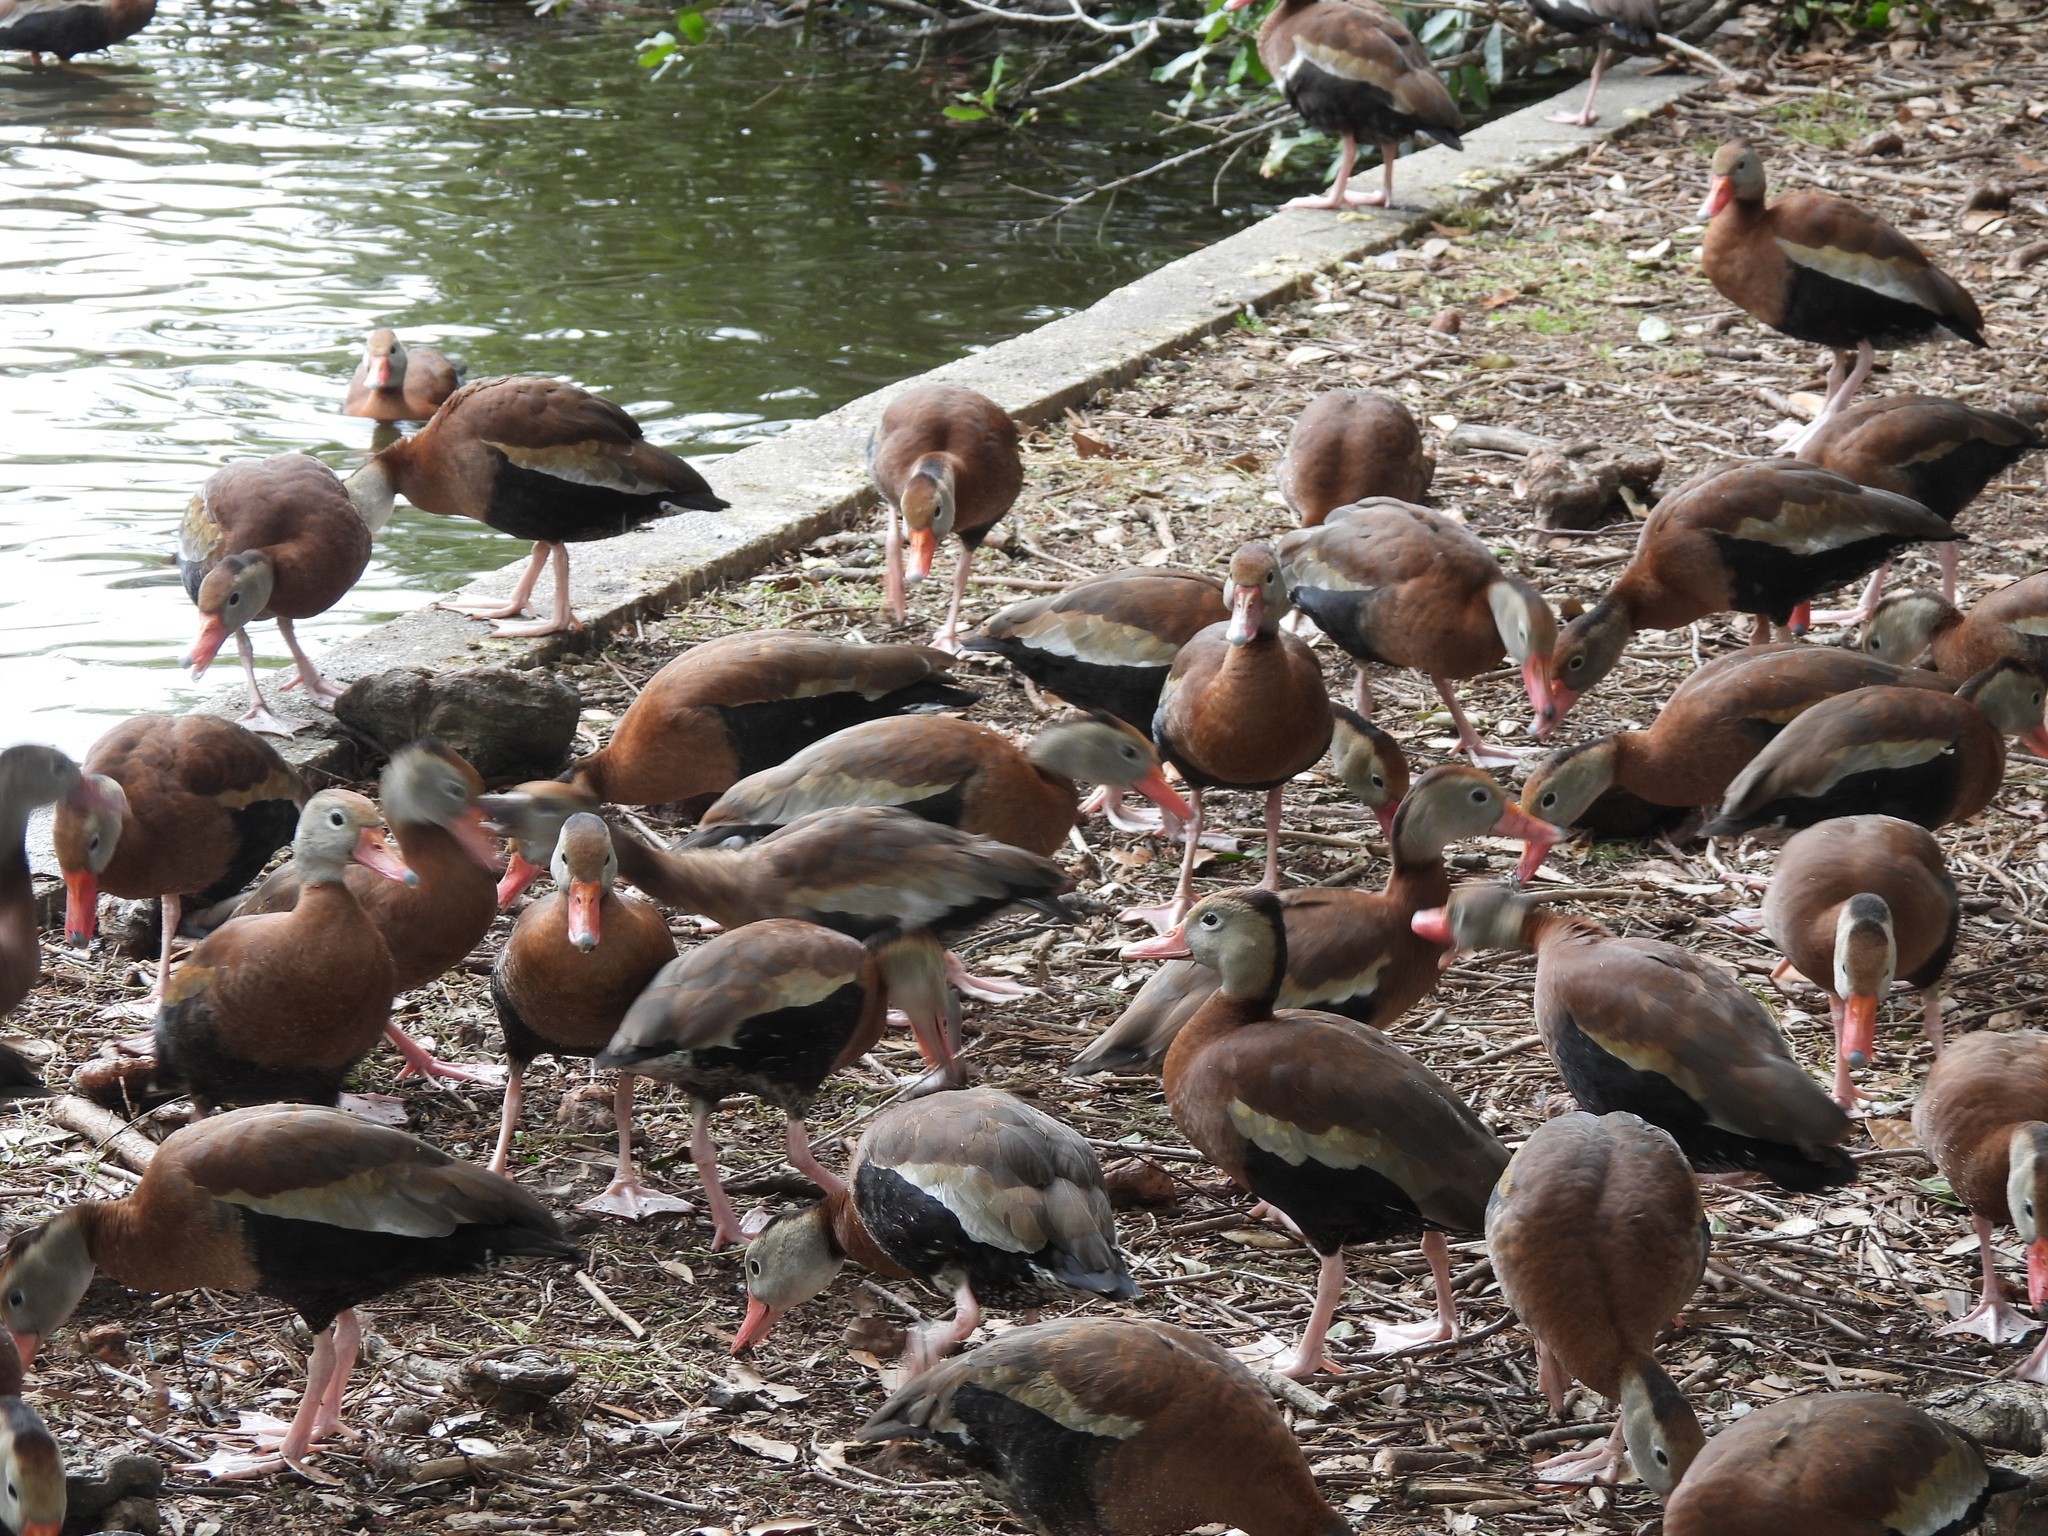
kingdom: Animalia
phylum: Chordata
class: Aves
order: Anseriformes
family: Anatidae
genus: Dendrocygna
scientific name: Dendrocygna autumnalis
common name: Black-bellied whistling duck
